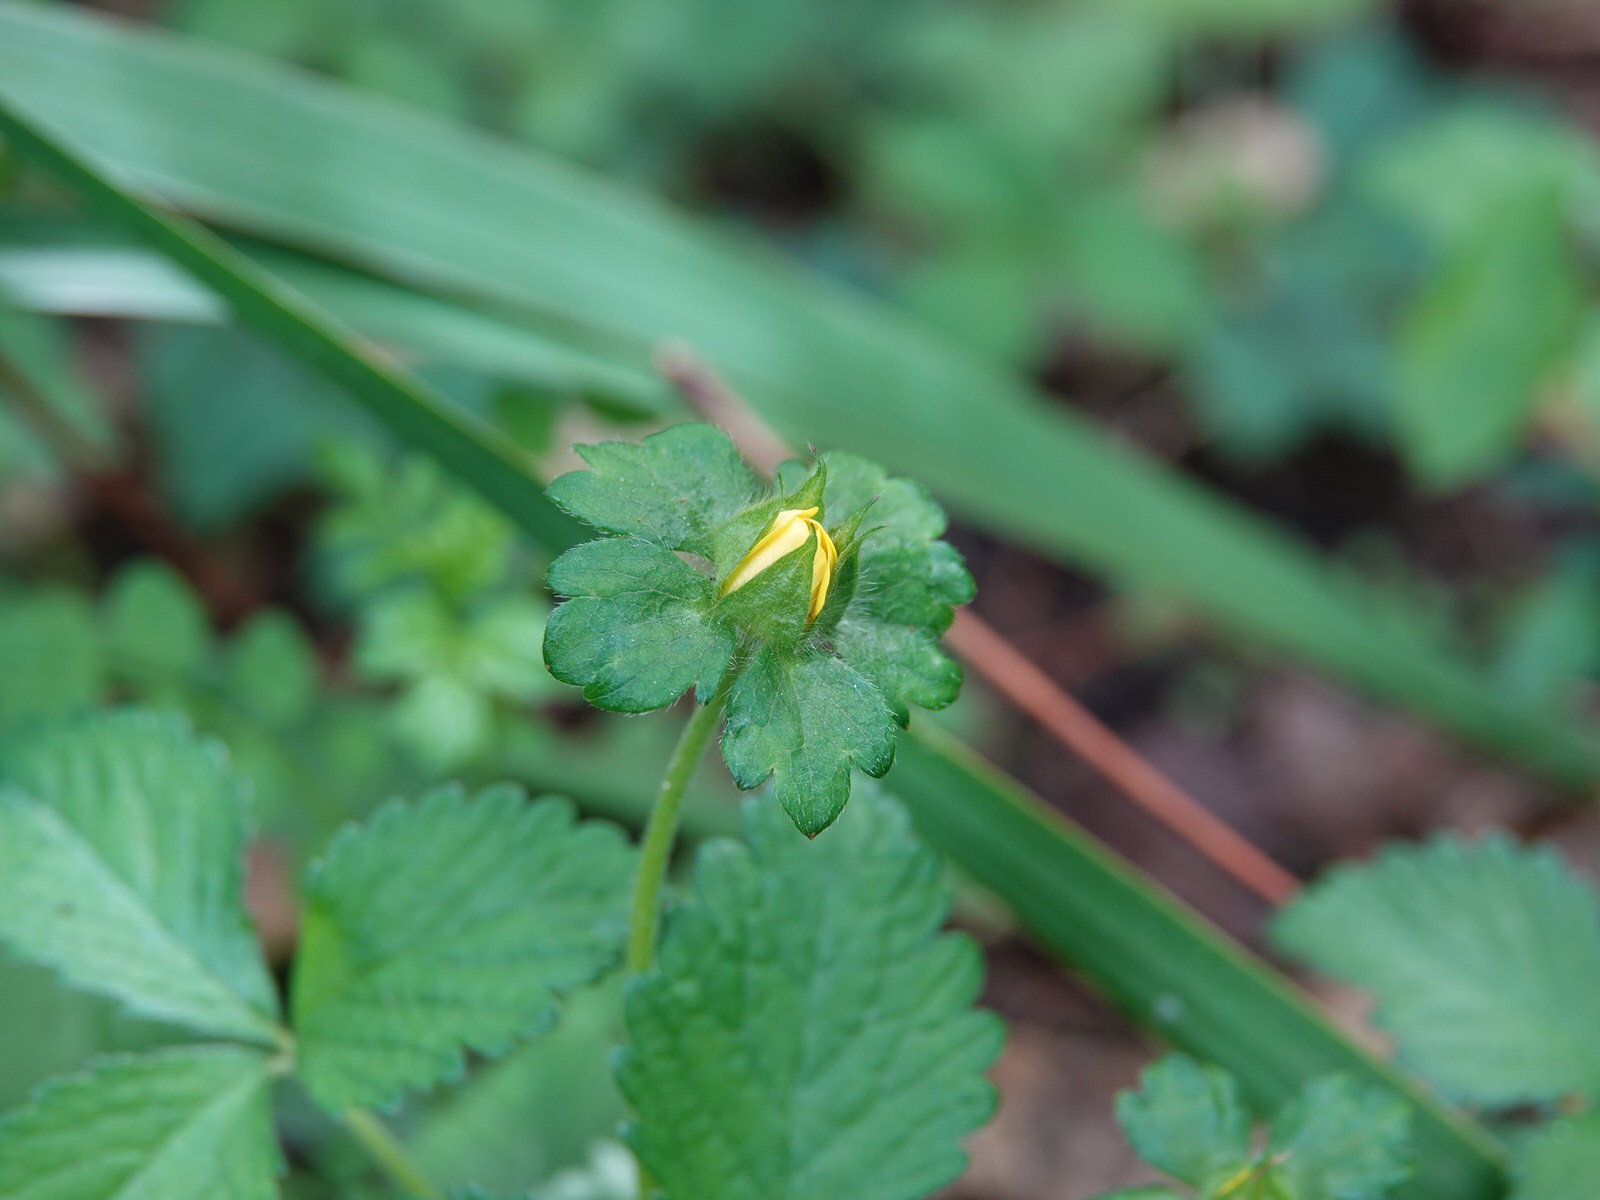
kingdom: Plantae
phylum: Tracheophyta
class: Magnoliopsida
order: Rosales
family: Rosaceae
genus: Potentilla
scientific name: Potentilla indica
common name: Yellow-flowered strawberry
